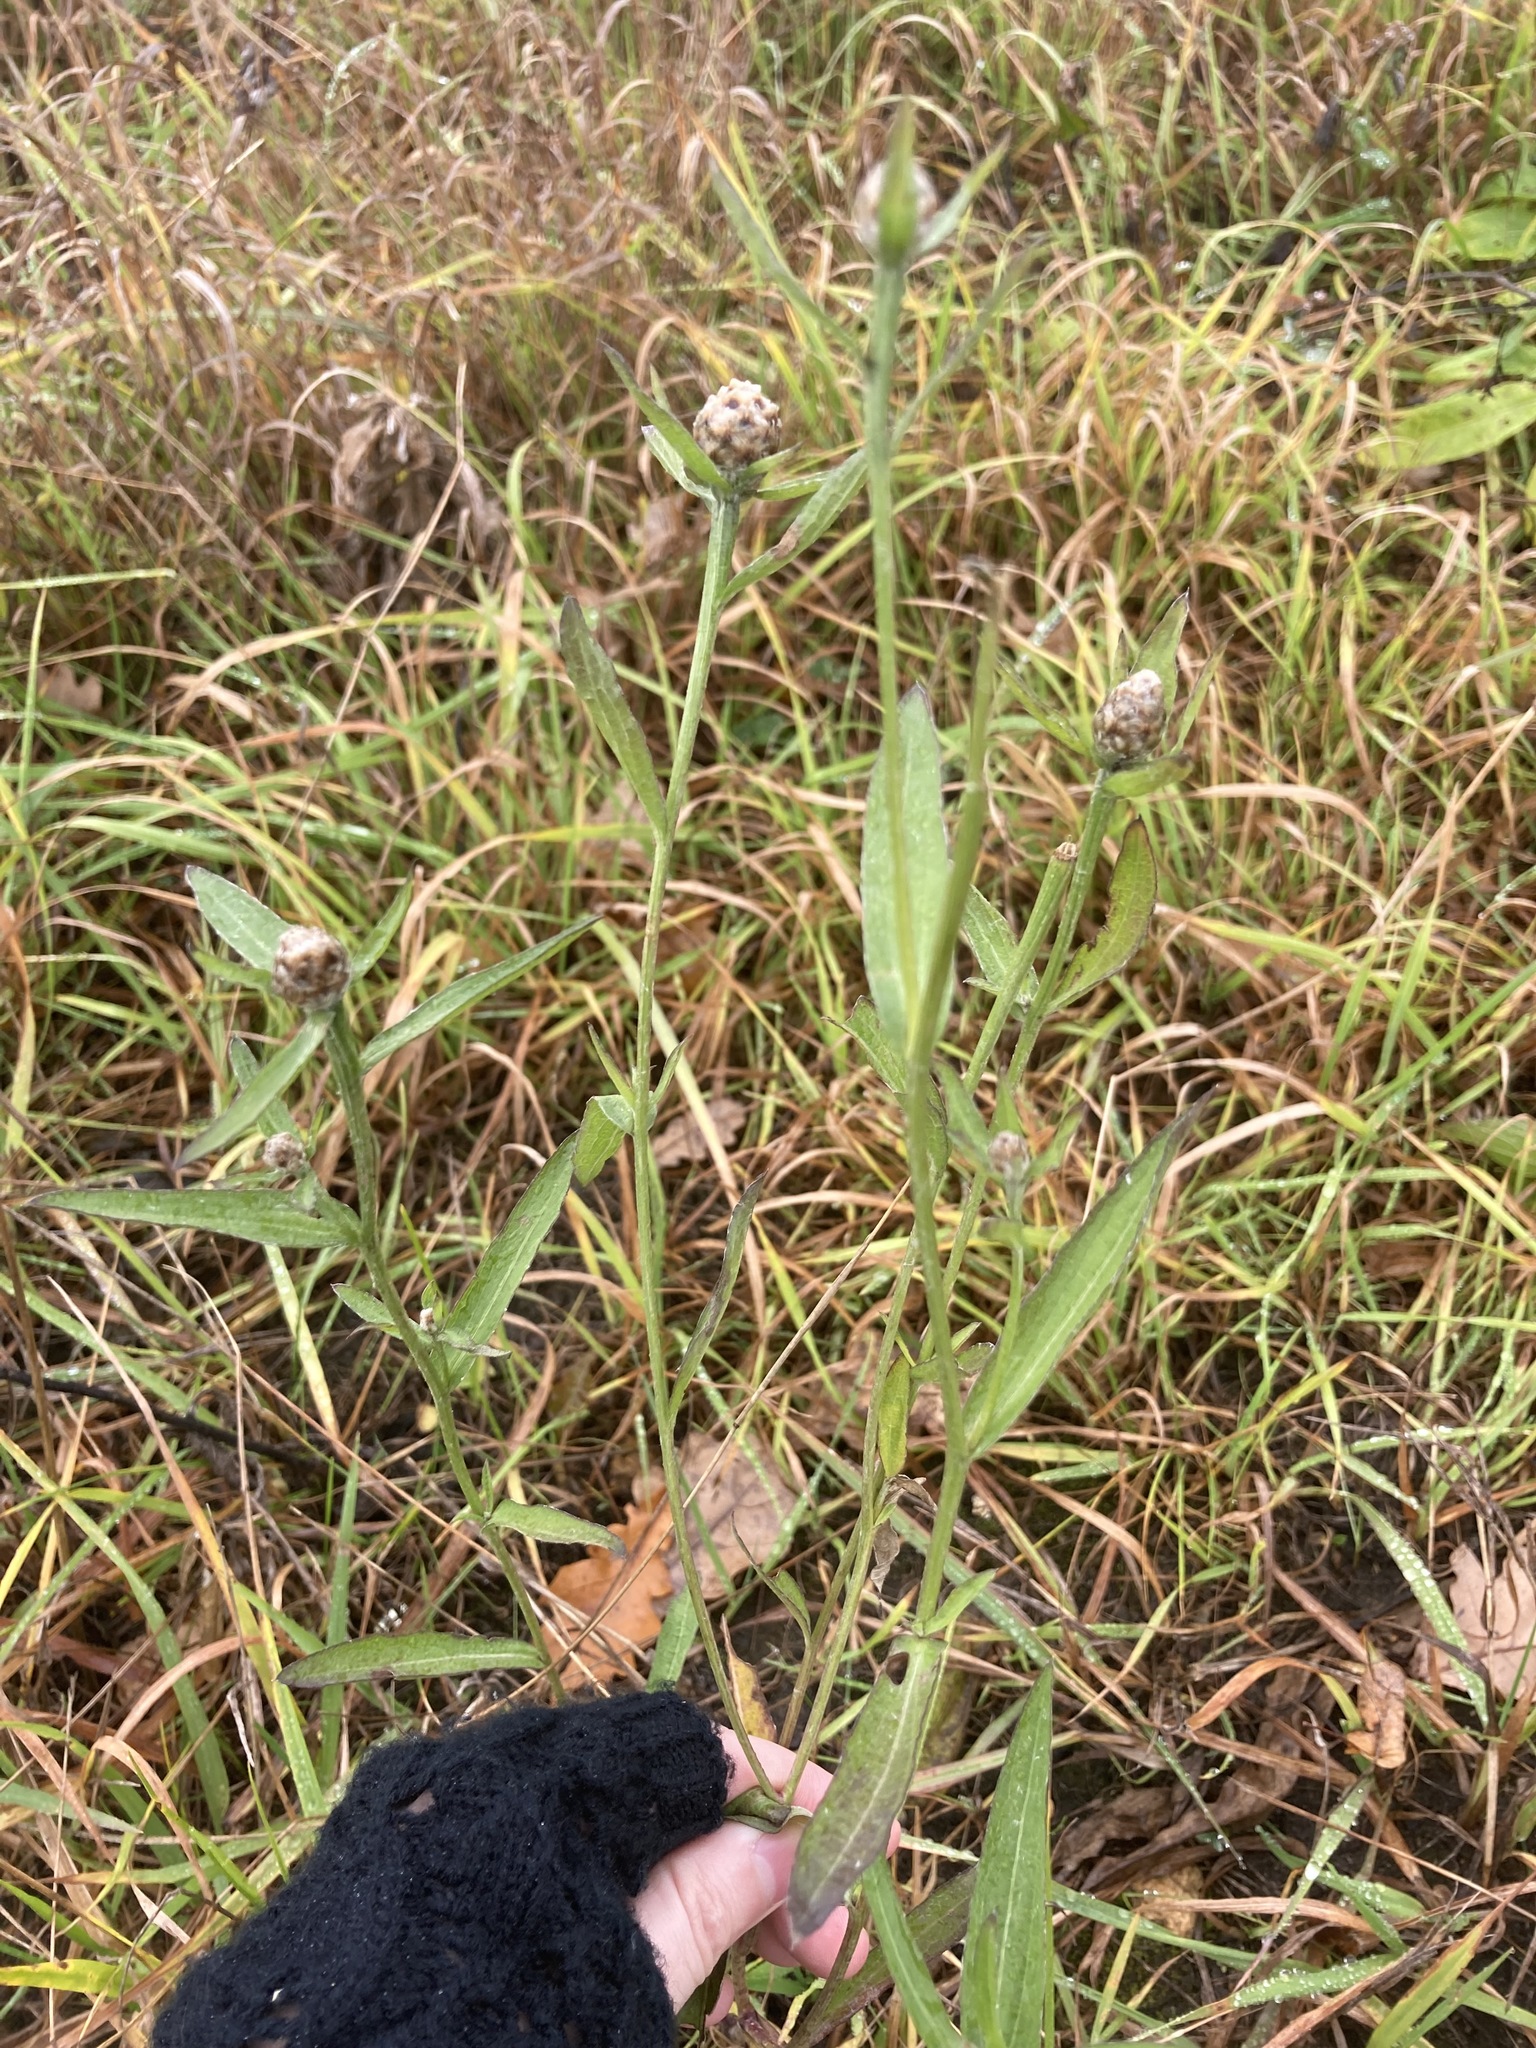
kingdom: Plantae
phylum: Tracheophyta
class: Magnoliopsida
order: Asterales
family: Asteraceae
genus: Centaurea
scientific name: Centaurea jacea
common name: Brown knapweed
